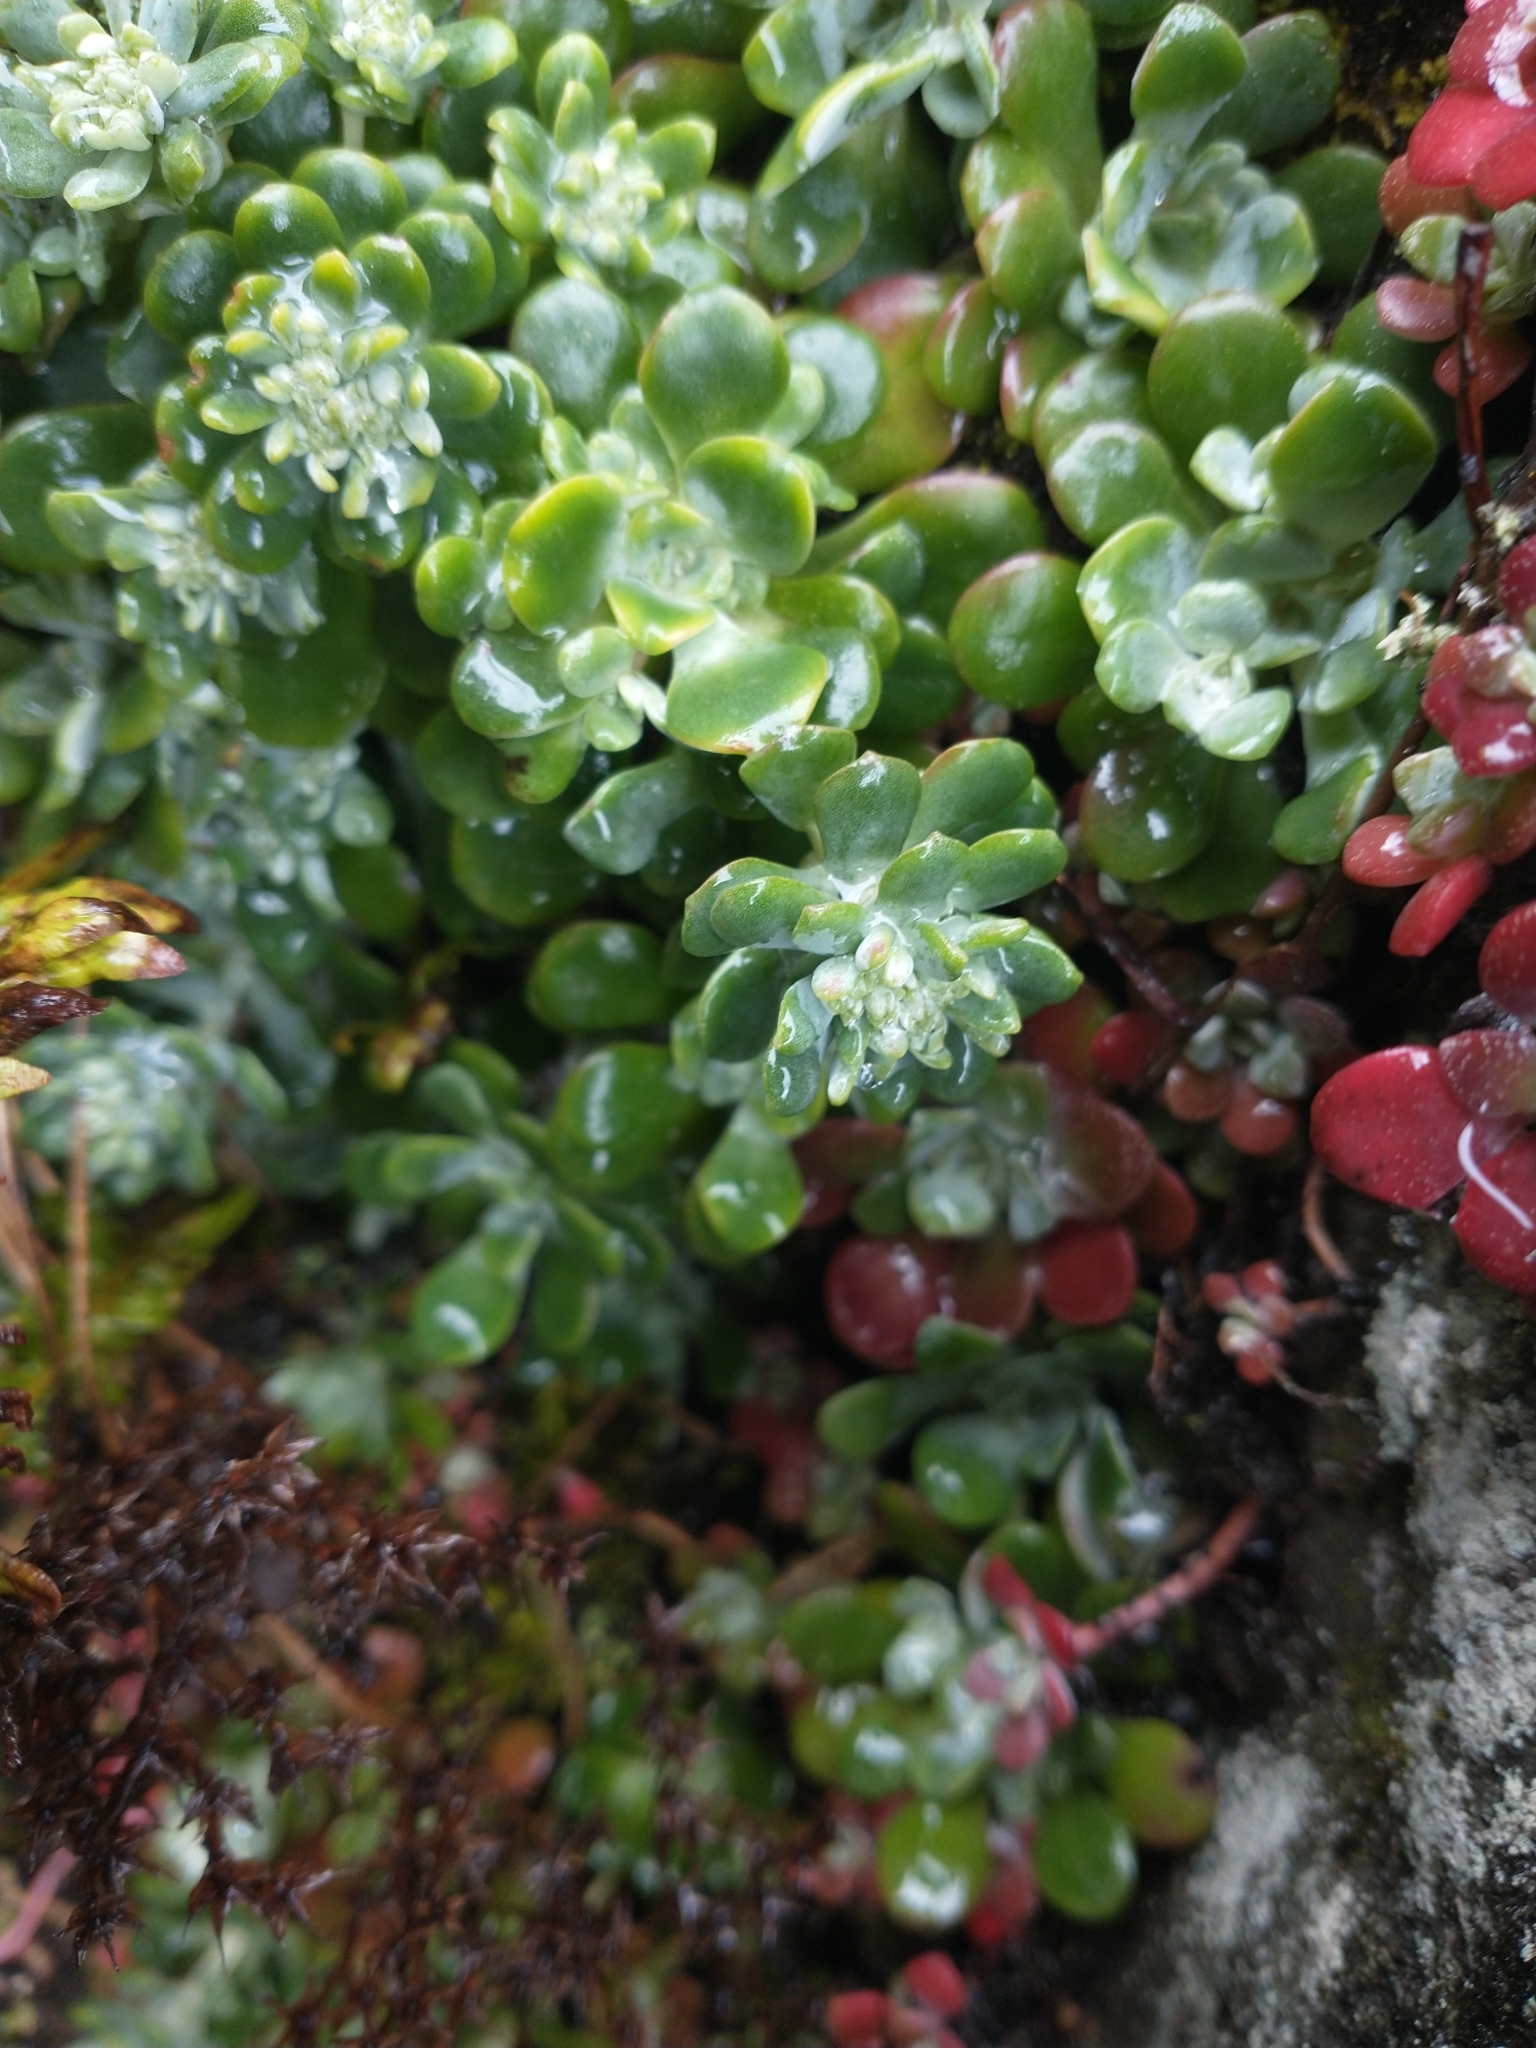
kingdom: Plantae
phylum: Tracheophyta
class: Magnoliopsida
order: Saxifragales
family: Crassulaceae
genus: Sedum
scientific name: Sedum spathulifolium
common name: Colorado stonecrop
